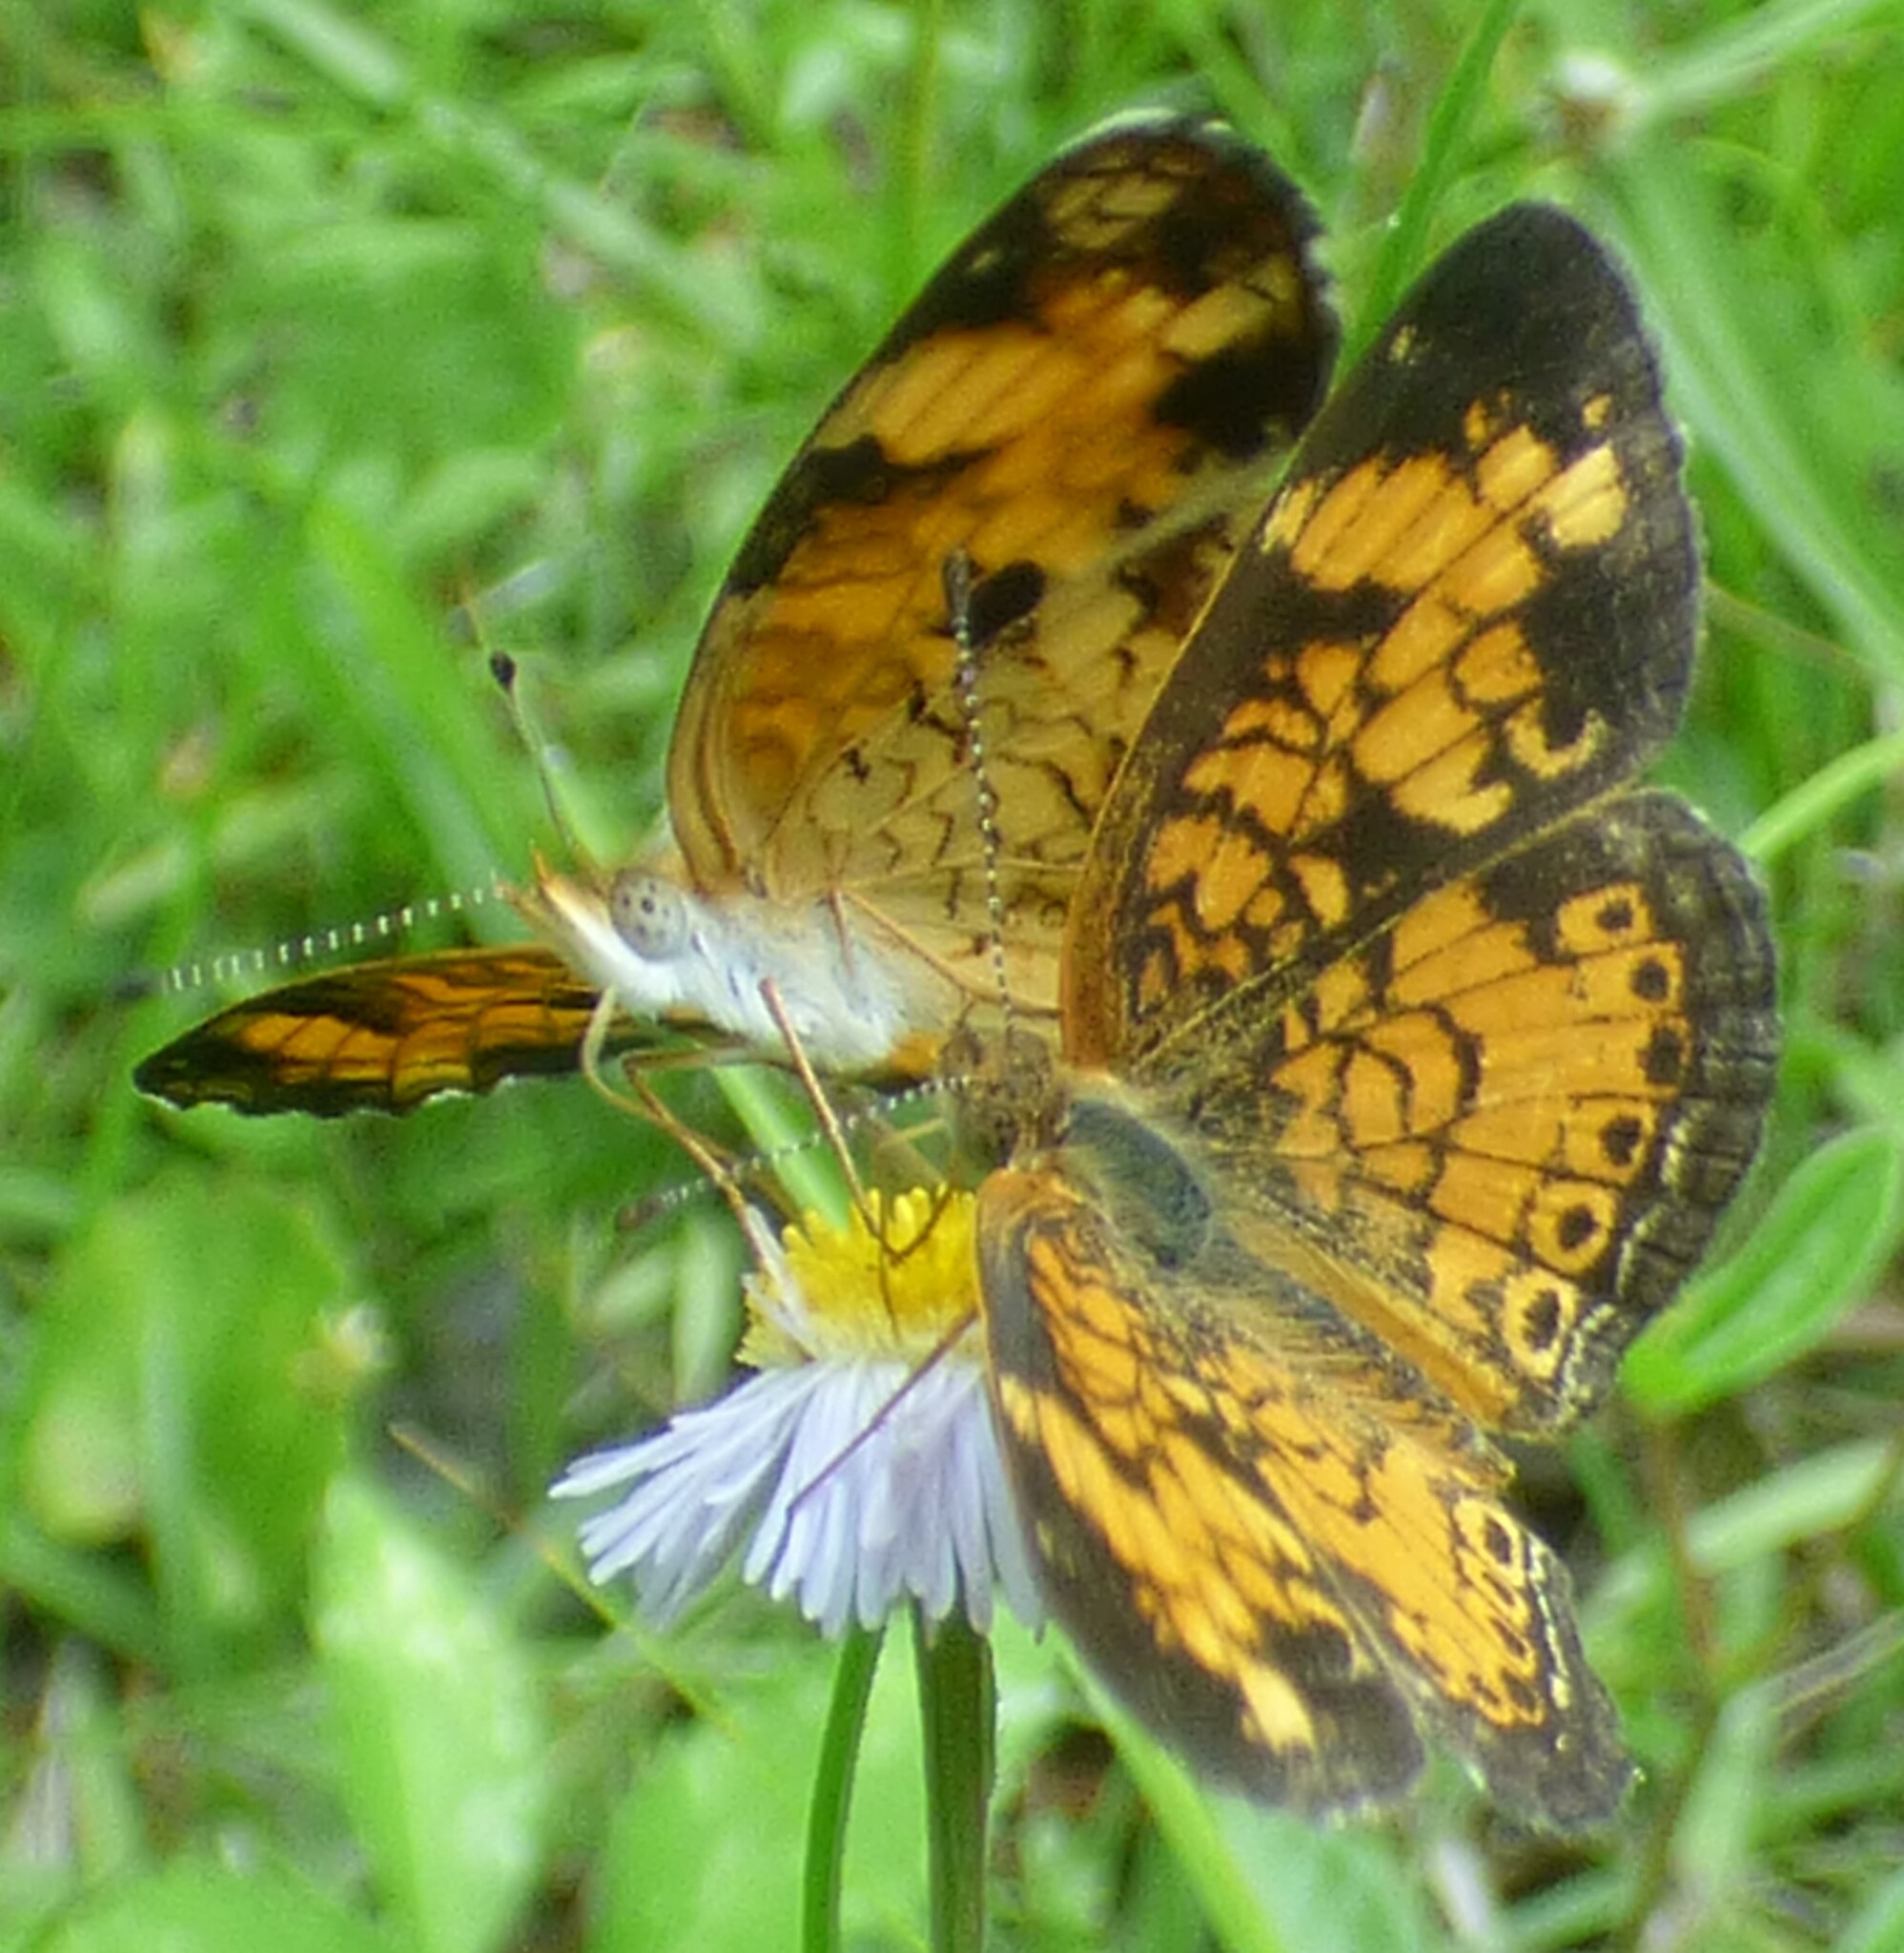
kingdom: Animalia
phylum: Arthropoda
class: Insecta
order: Lepidoptera
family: Nymphalidae
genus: Phyciodes
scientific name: Phyciodes tharos
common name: Pearl crescent
